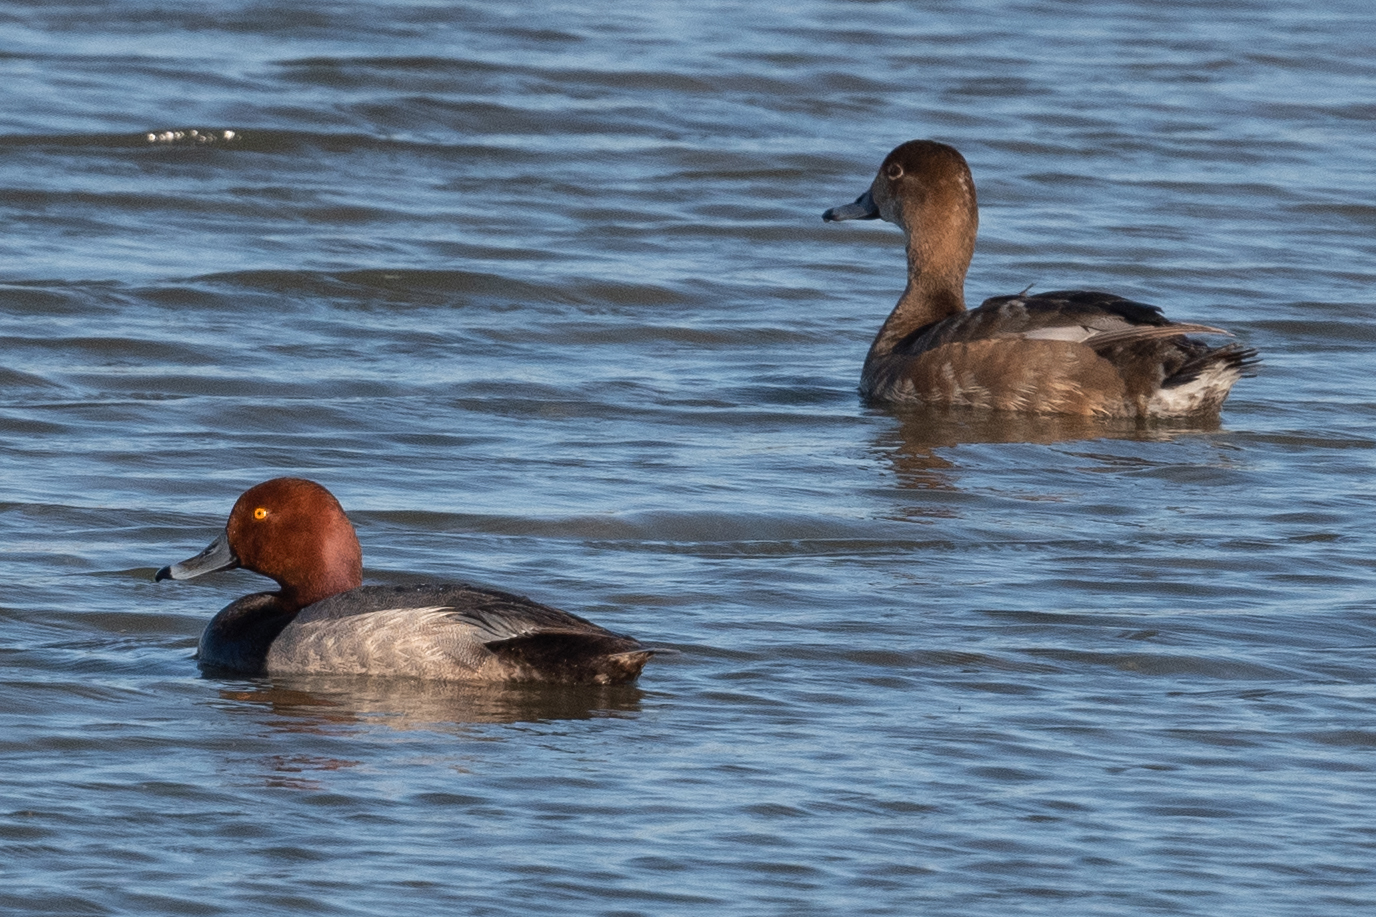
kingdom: Animalia
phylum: Chordata
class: Aves
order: Anseriformes
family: Anatidae
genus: Aythya
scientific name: Aythya americana
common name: Redhead
